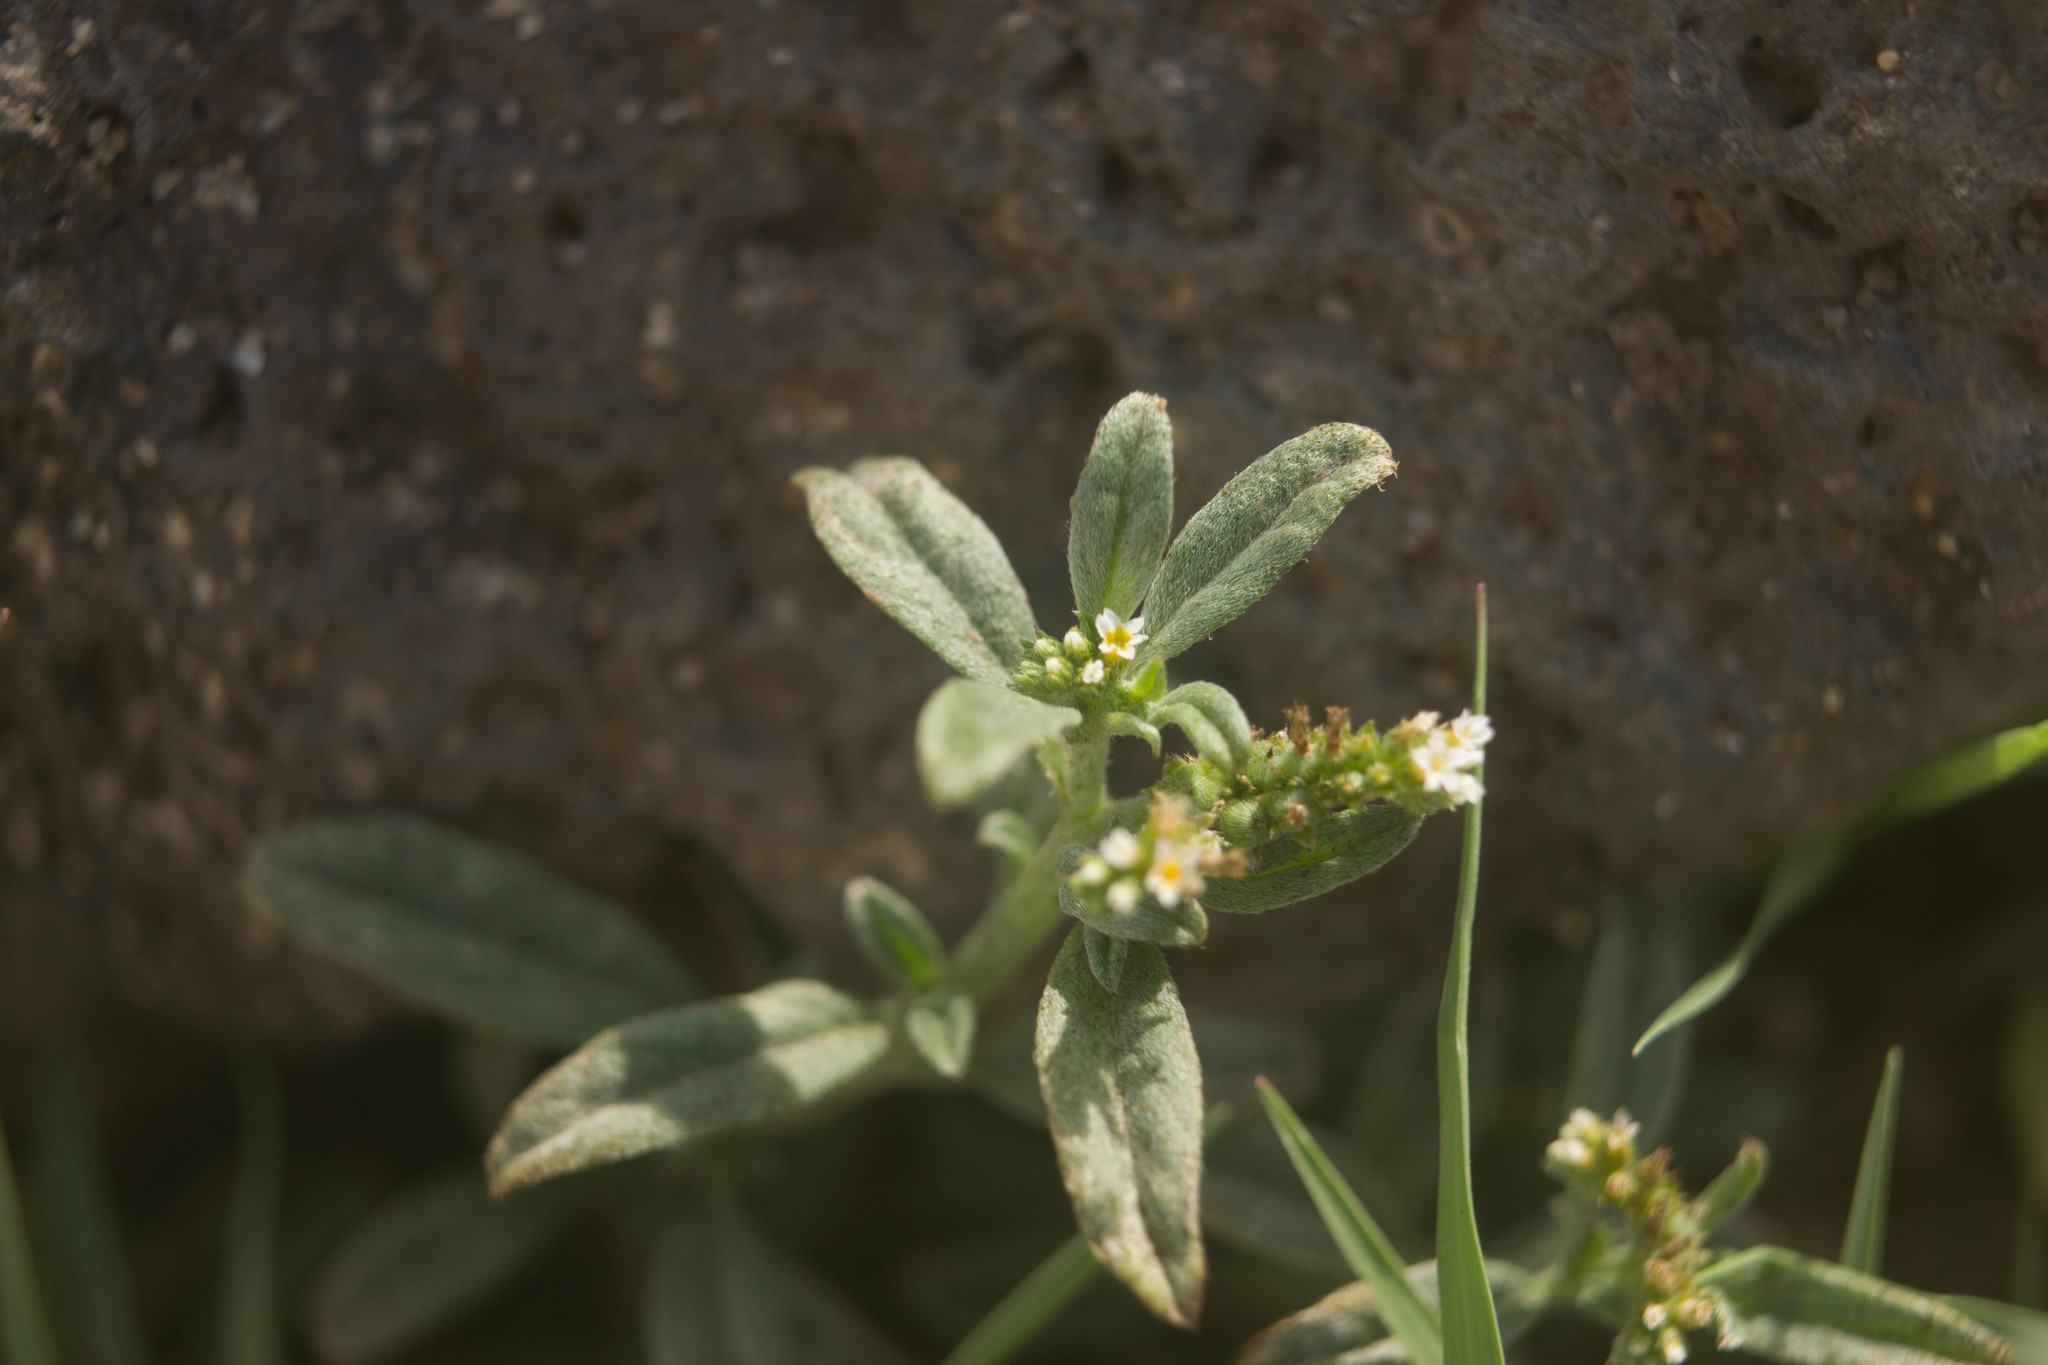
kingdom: Plantae
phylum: Tracheophyta
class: Magnoliopsida
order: Boraginales
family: Heliotropiaceae
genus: Euploca
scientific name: Euploca procumbens
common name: Fourspike heliotrope
